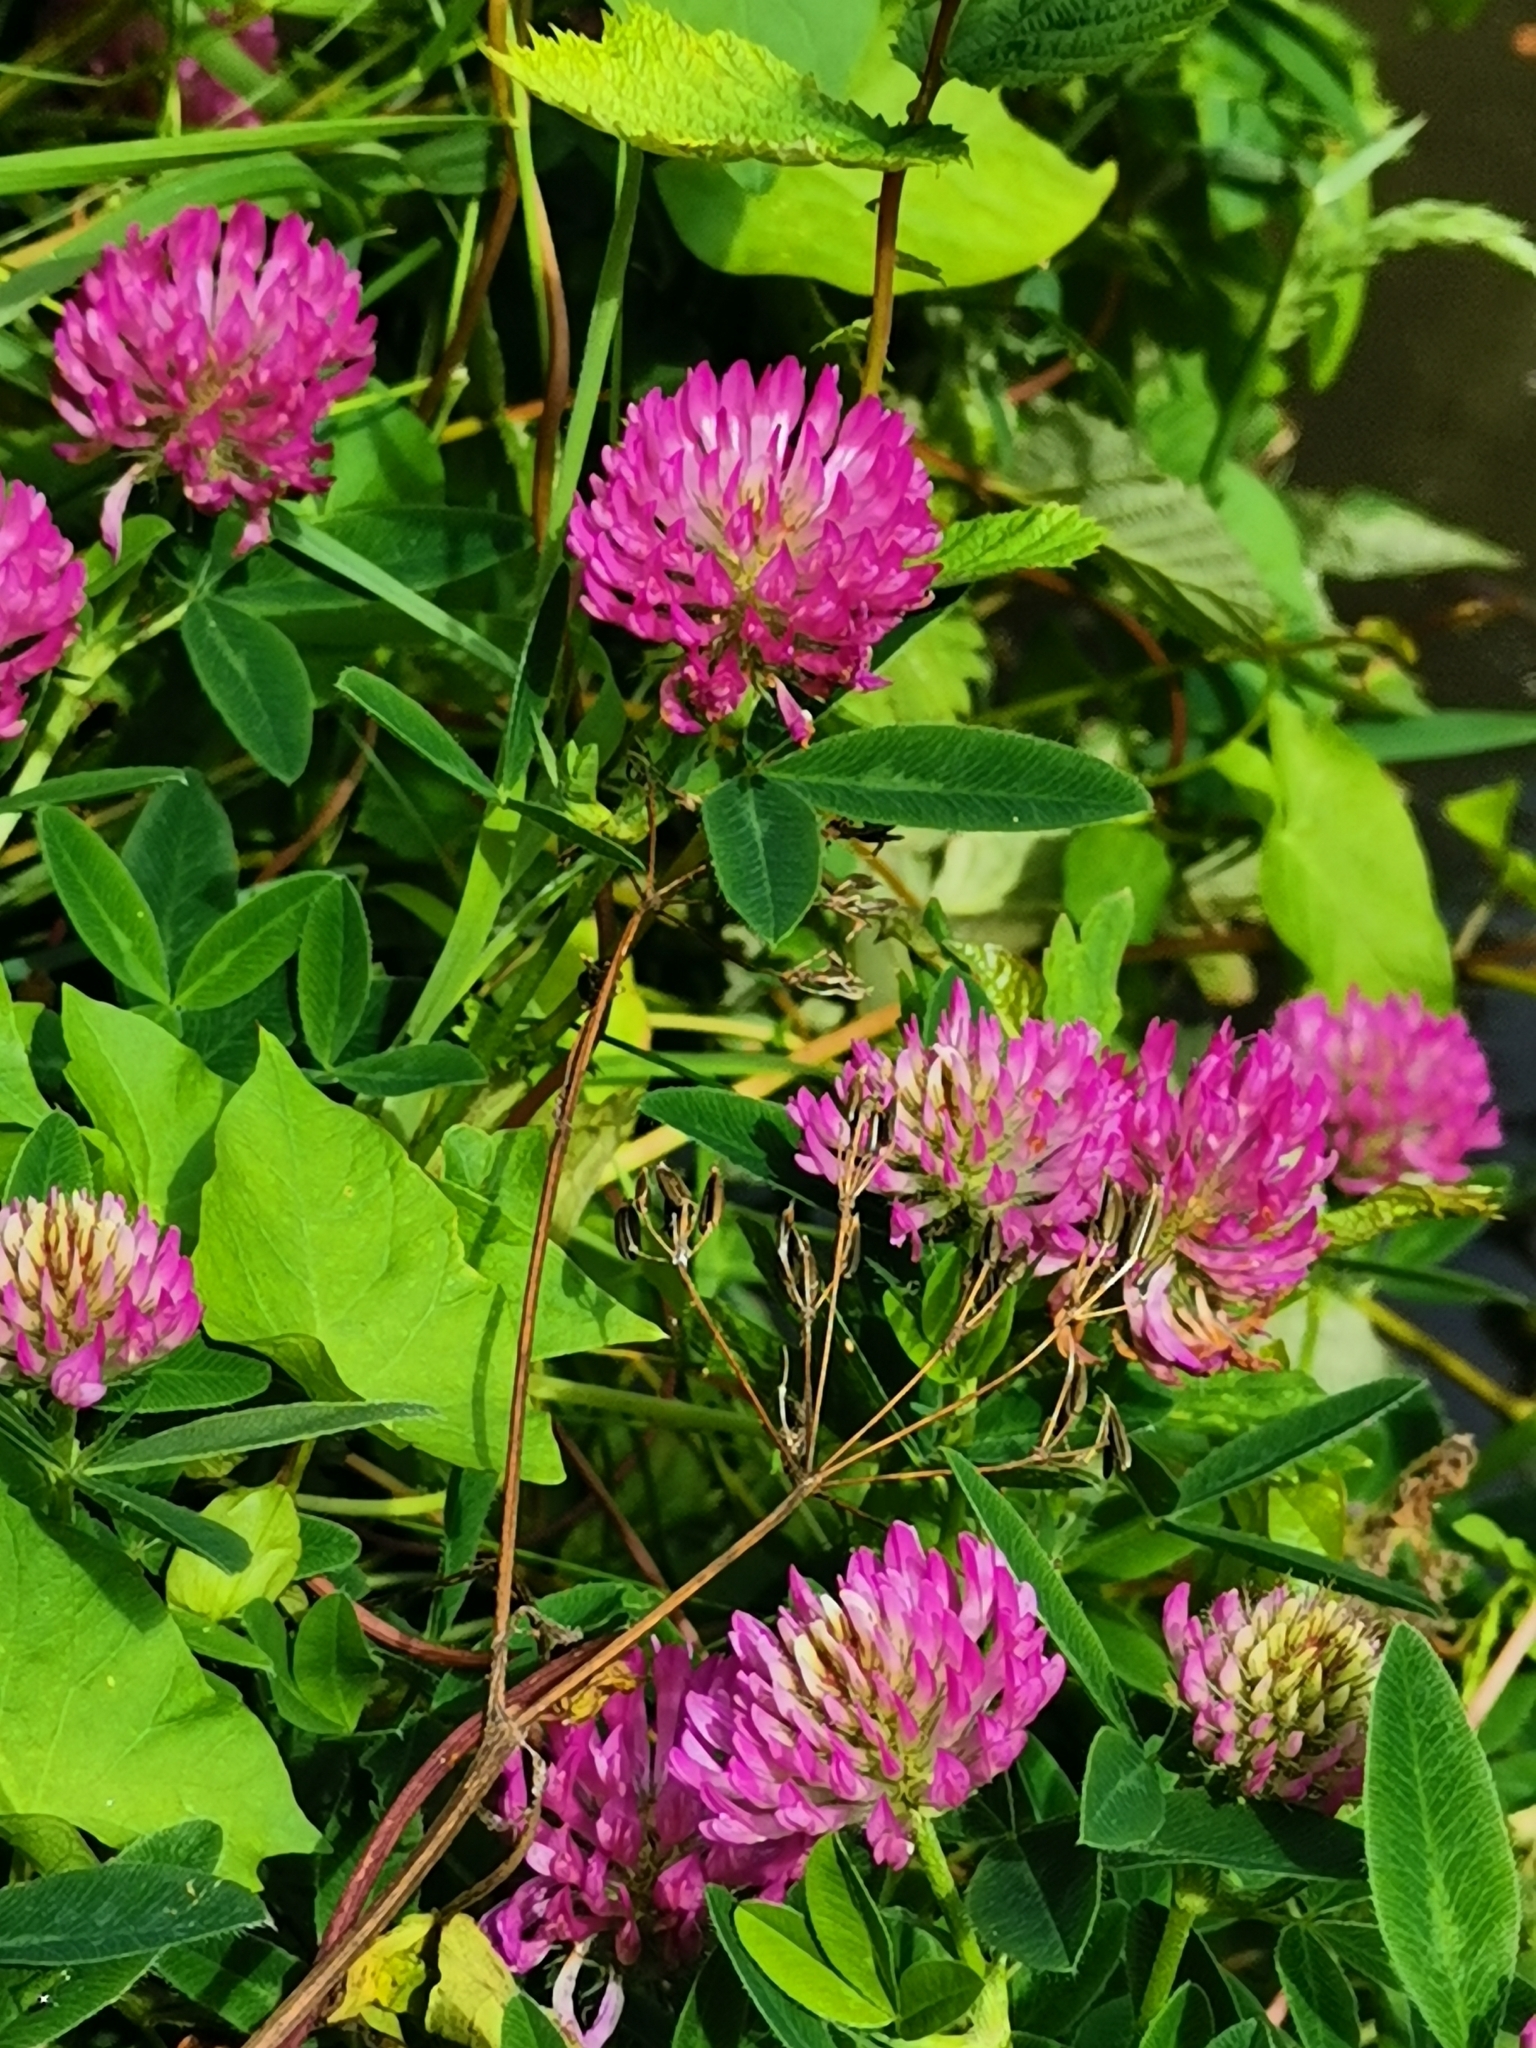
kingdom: Plantae
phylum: Tracheophyta
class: Magnoliopsida
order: Fabales
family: Fabaceae
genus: Trifolium
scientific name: Trifolium medium
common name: Zigzag clover
